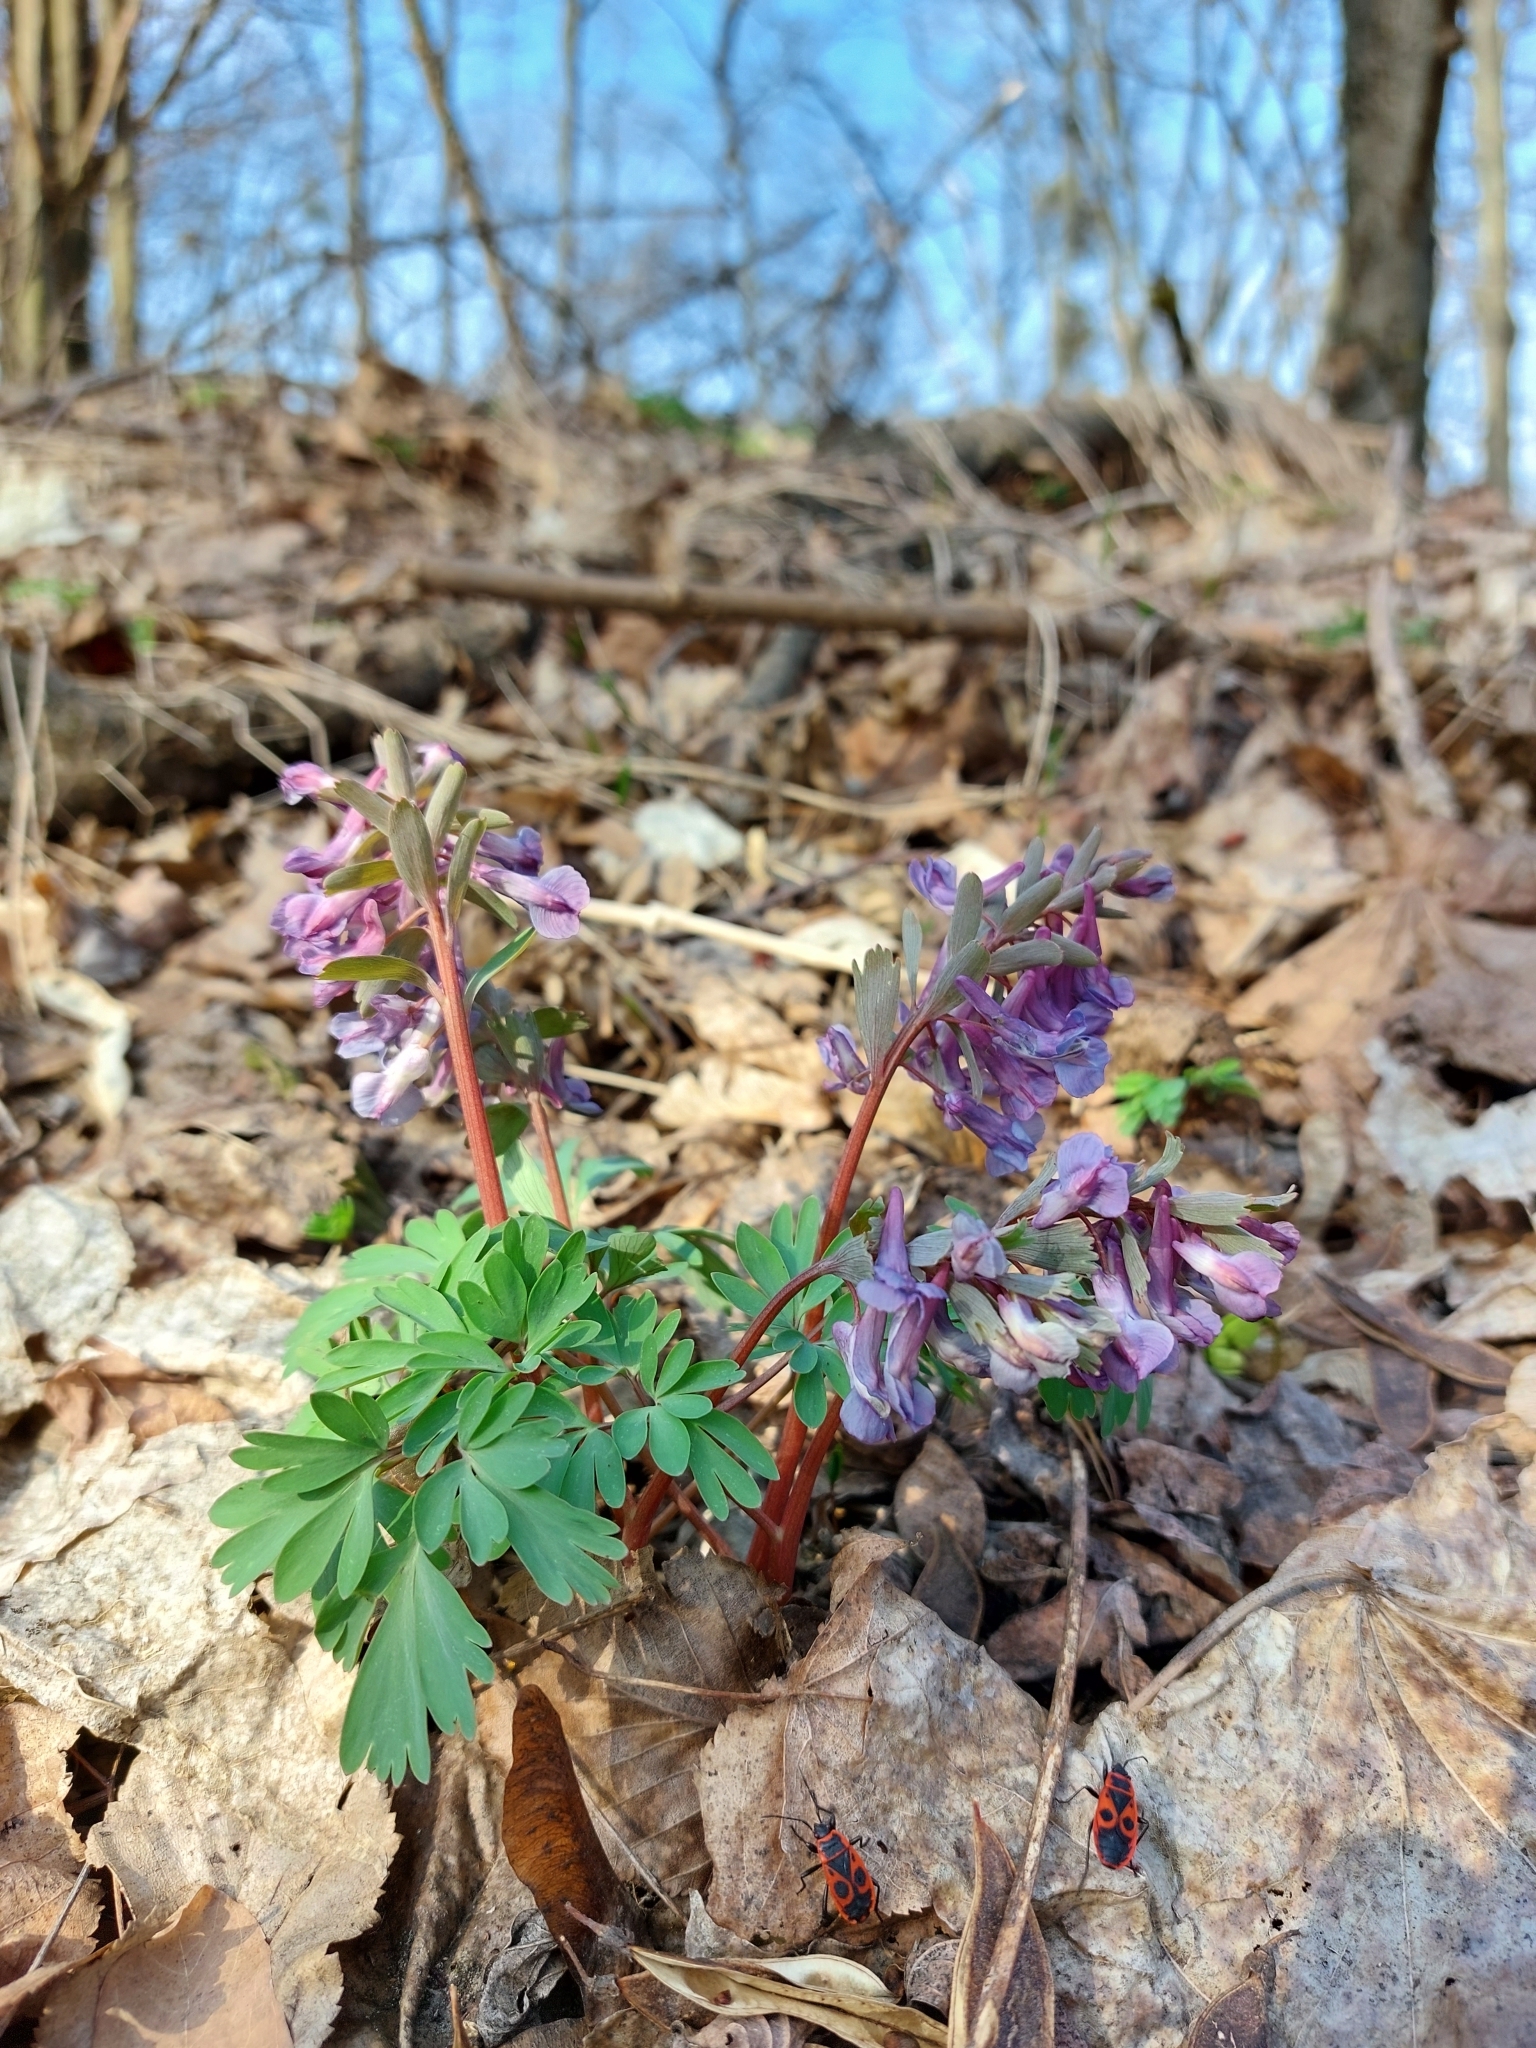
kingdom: Plantae
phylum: Tracheophyta
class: Magnoliopsida
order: Ranunculales
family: Papaveraceae
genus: Corydalis
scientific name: Corydalis solida
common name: Bird-in-a-bush
